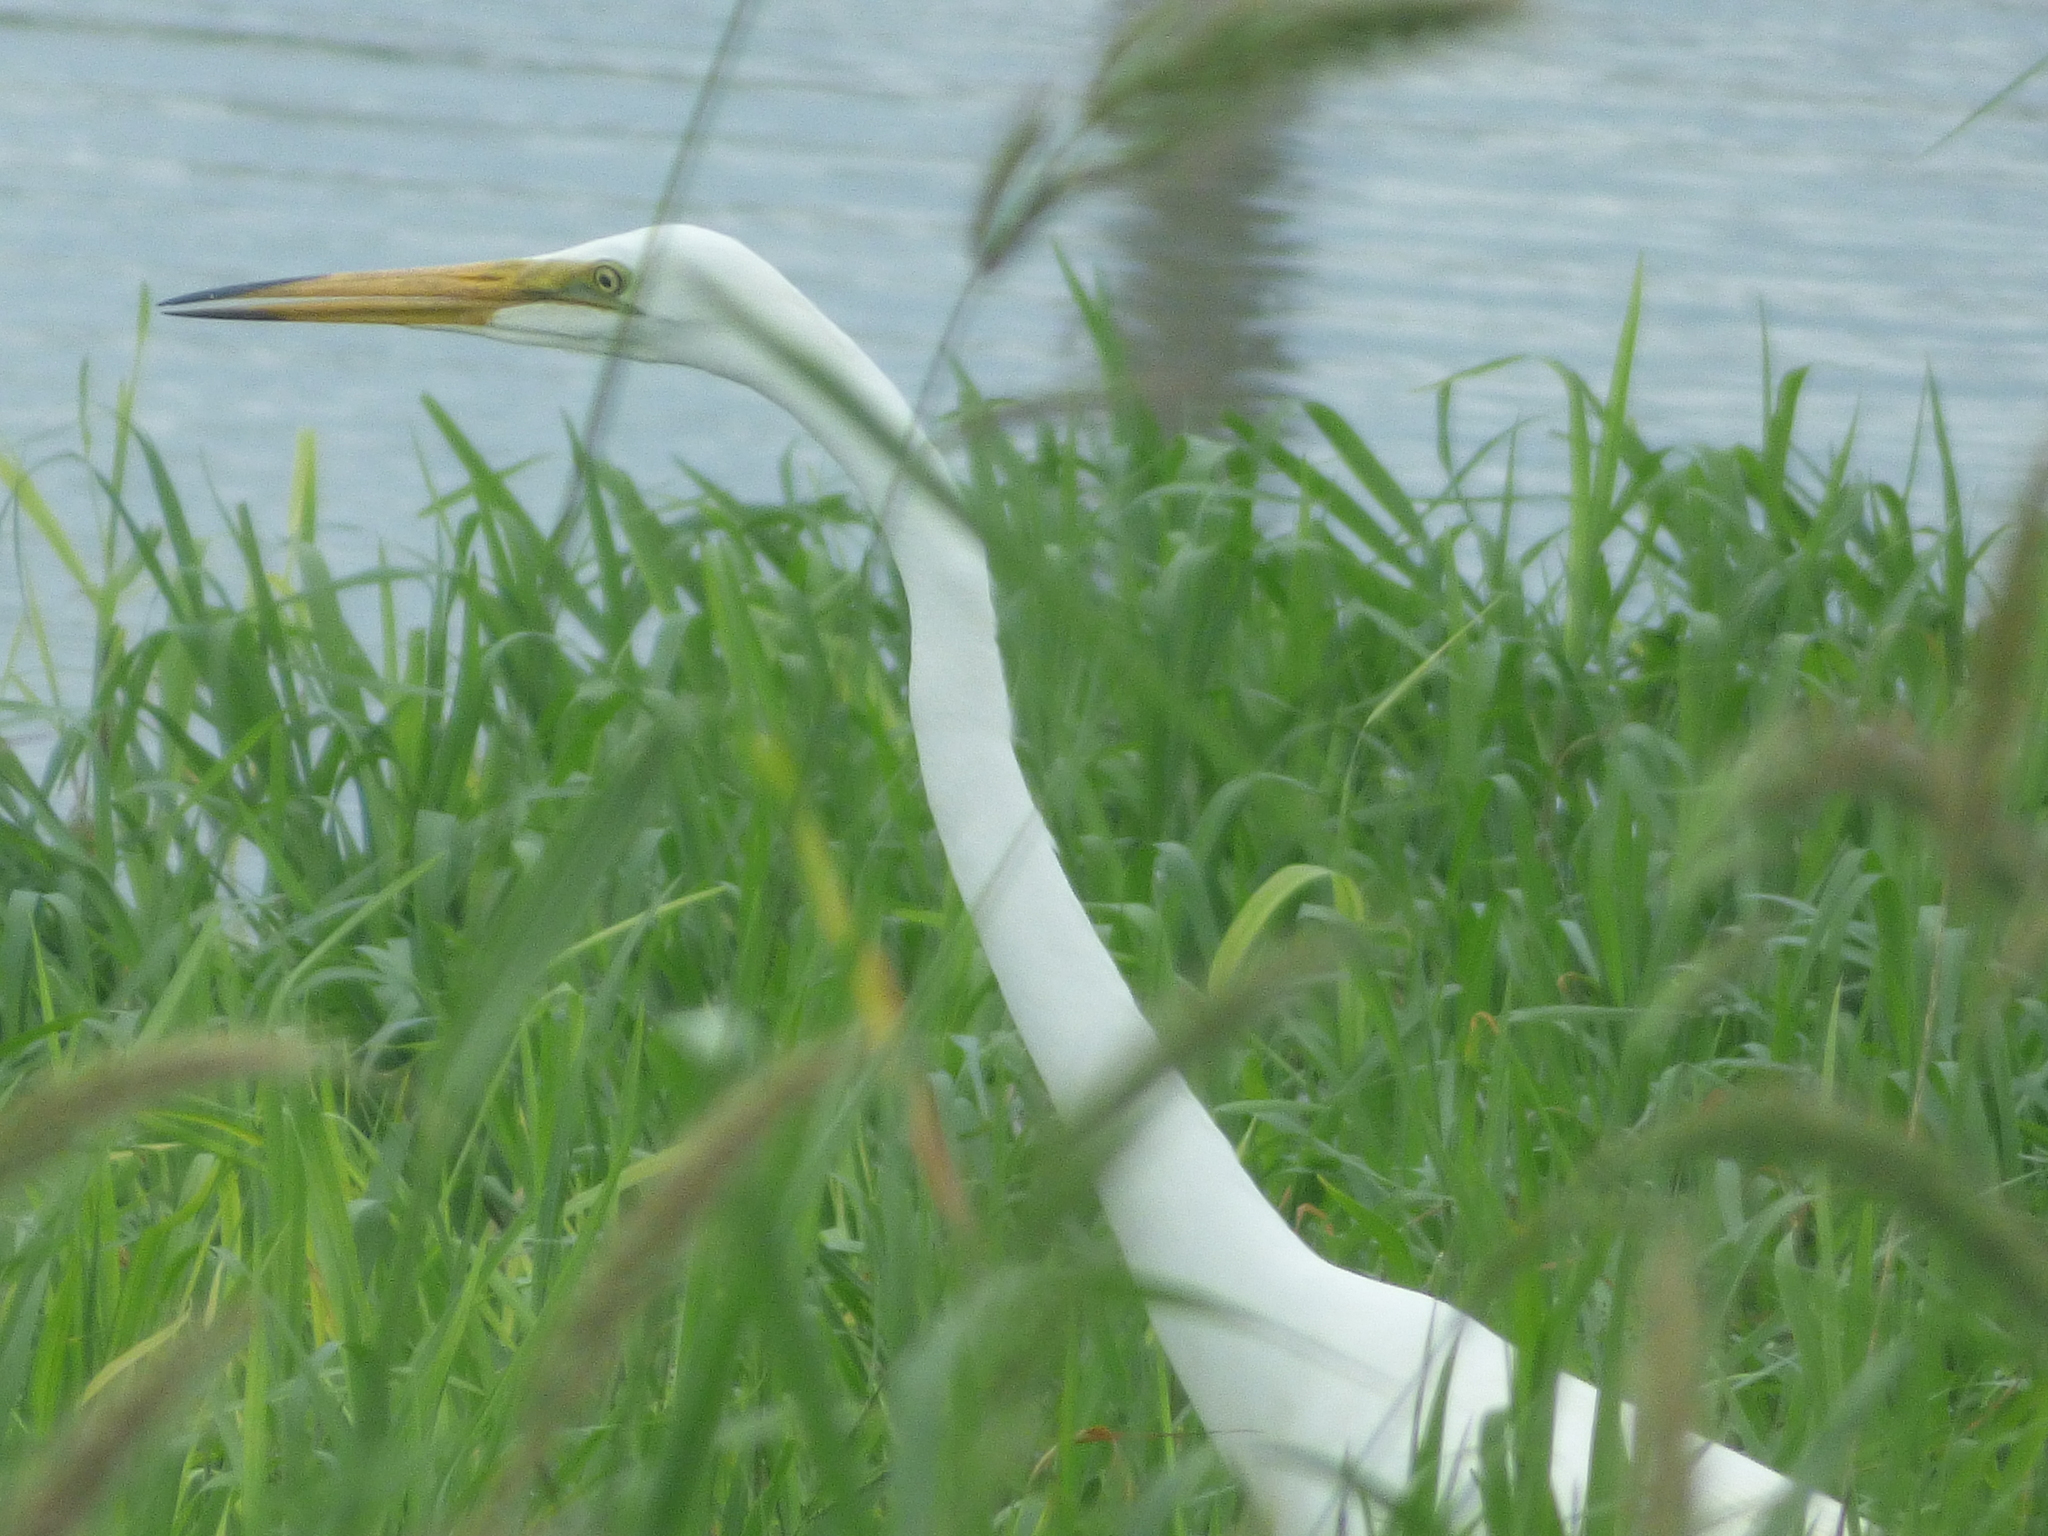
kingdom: Animalia
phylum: Chordata
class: Aves
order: Pelecaniformes
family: Ardeidae
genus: Ardea
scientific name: Ardea alba
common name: Great egret
